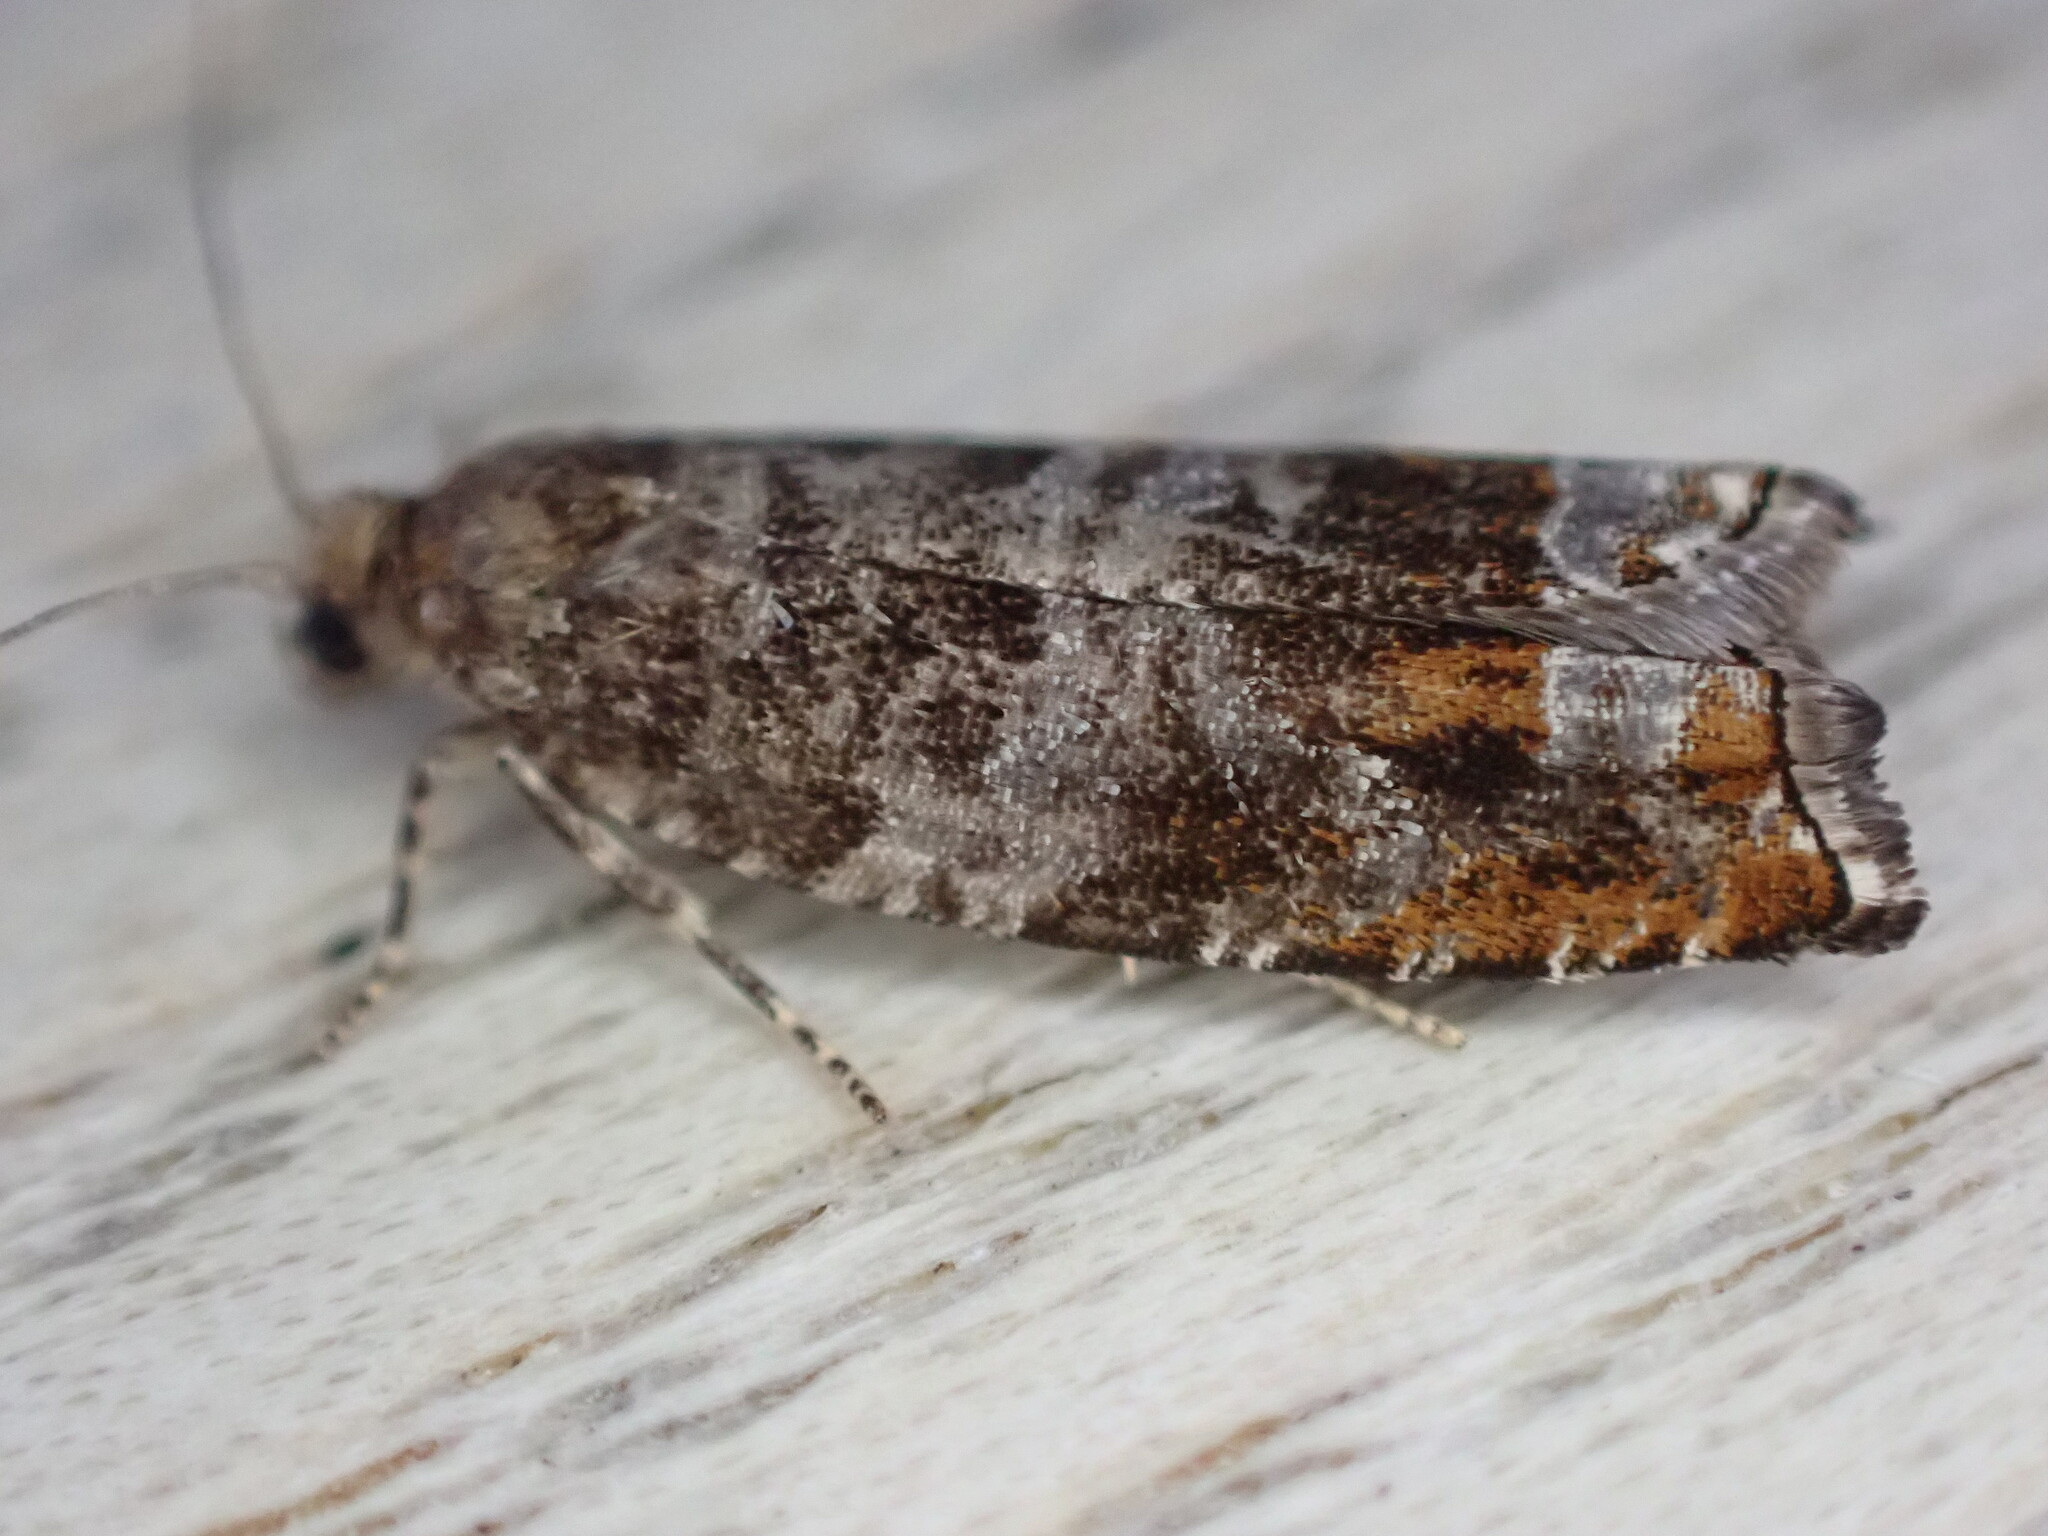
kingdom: Animalia
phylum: Arthropoda
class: Insecta
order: Lepidoptera
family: Tortricidae
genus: Ancylis
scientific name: Ancylis achatana
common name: Triangle-marked roller
